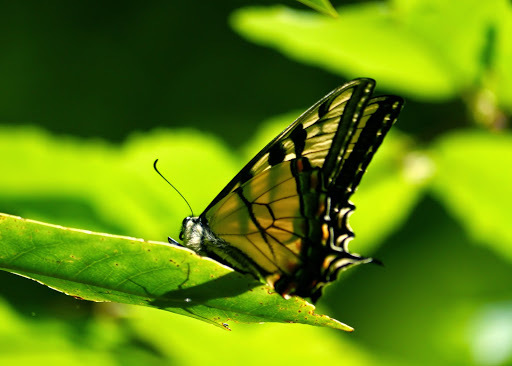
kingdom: Animalia
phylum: Arthropoda
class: Insecta
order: Lepidoptera
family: Papilionidae
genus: Papilio
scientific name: Papilio glaucus
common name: Tiger swallowtail
